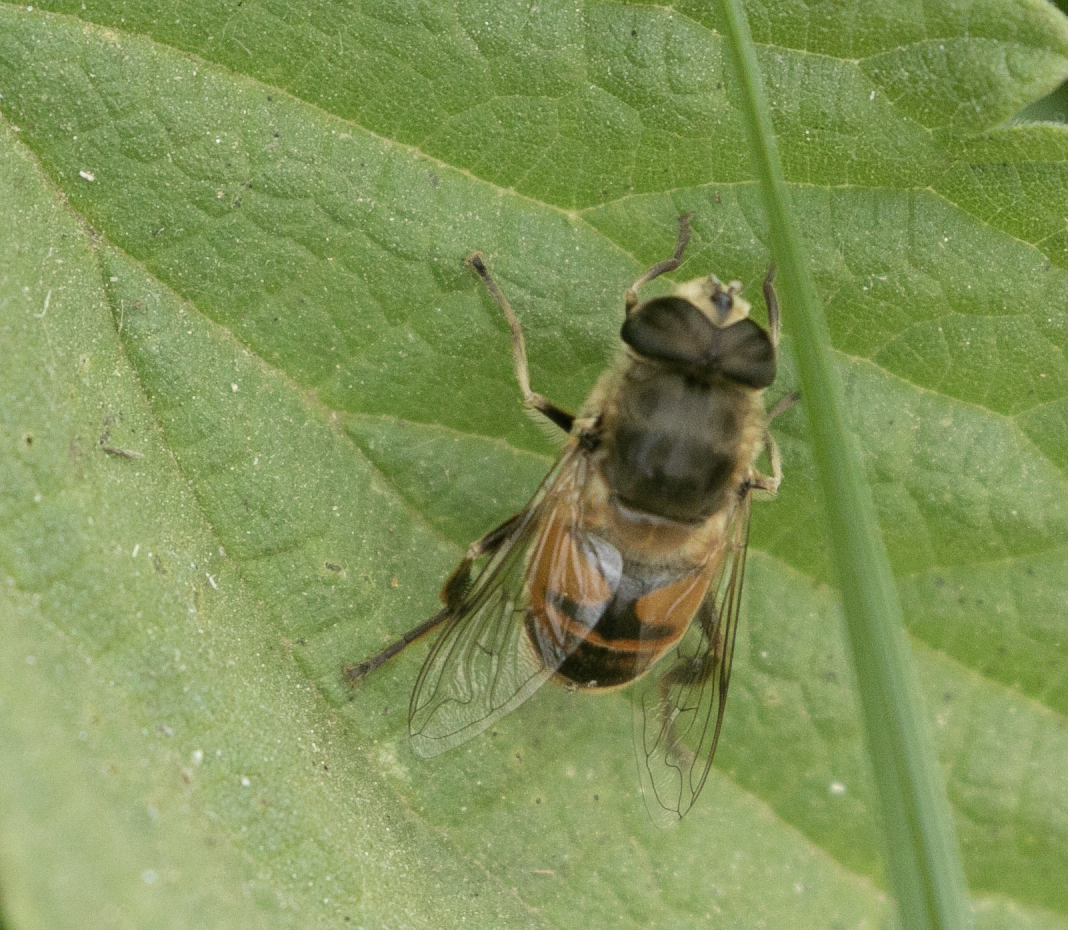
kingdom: Animalia
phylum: Arthropoda
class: Insecta
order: Diptera
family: Syrphidae
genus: Eristalis
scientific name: Eristalis tenax
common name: Drone fly
